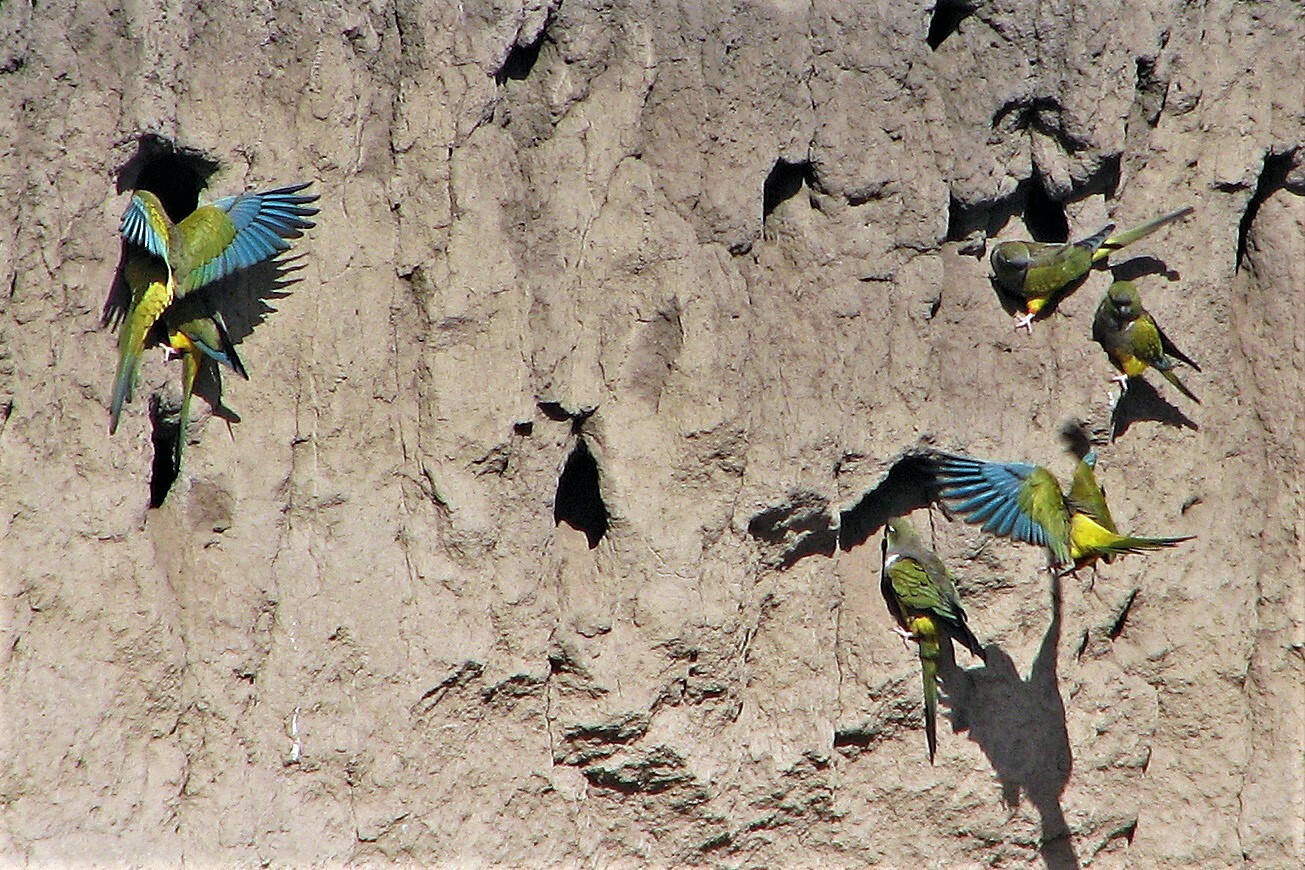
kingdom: Animalia
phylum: Chordata
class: Aves
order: Psittaciformes
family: Psittacidae
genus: Cyanoliseus
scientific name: Cyanoliseus patagonus
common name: Burrowing parrot
